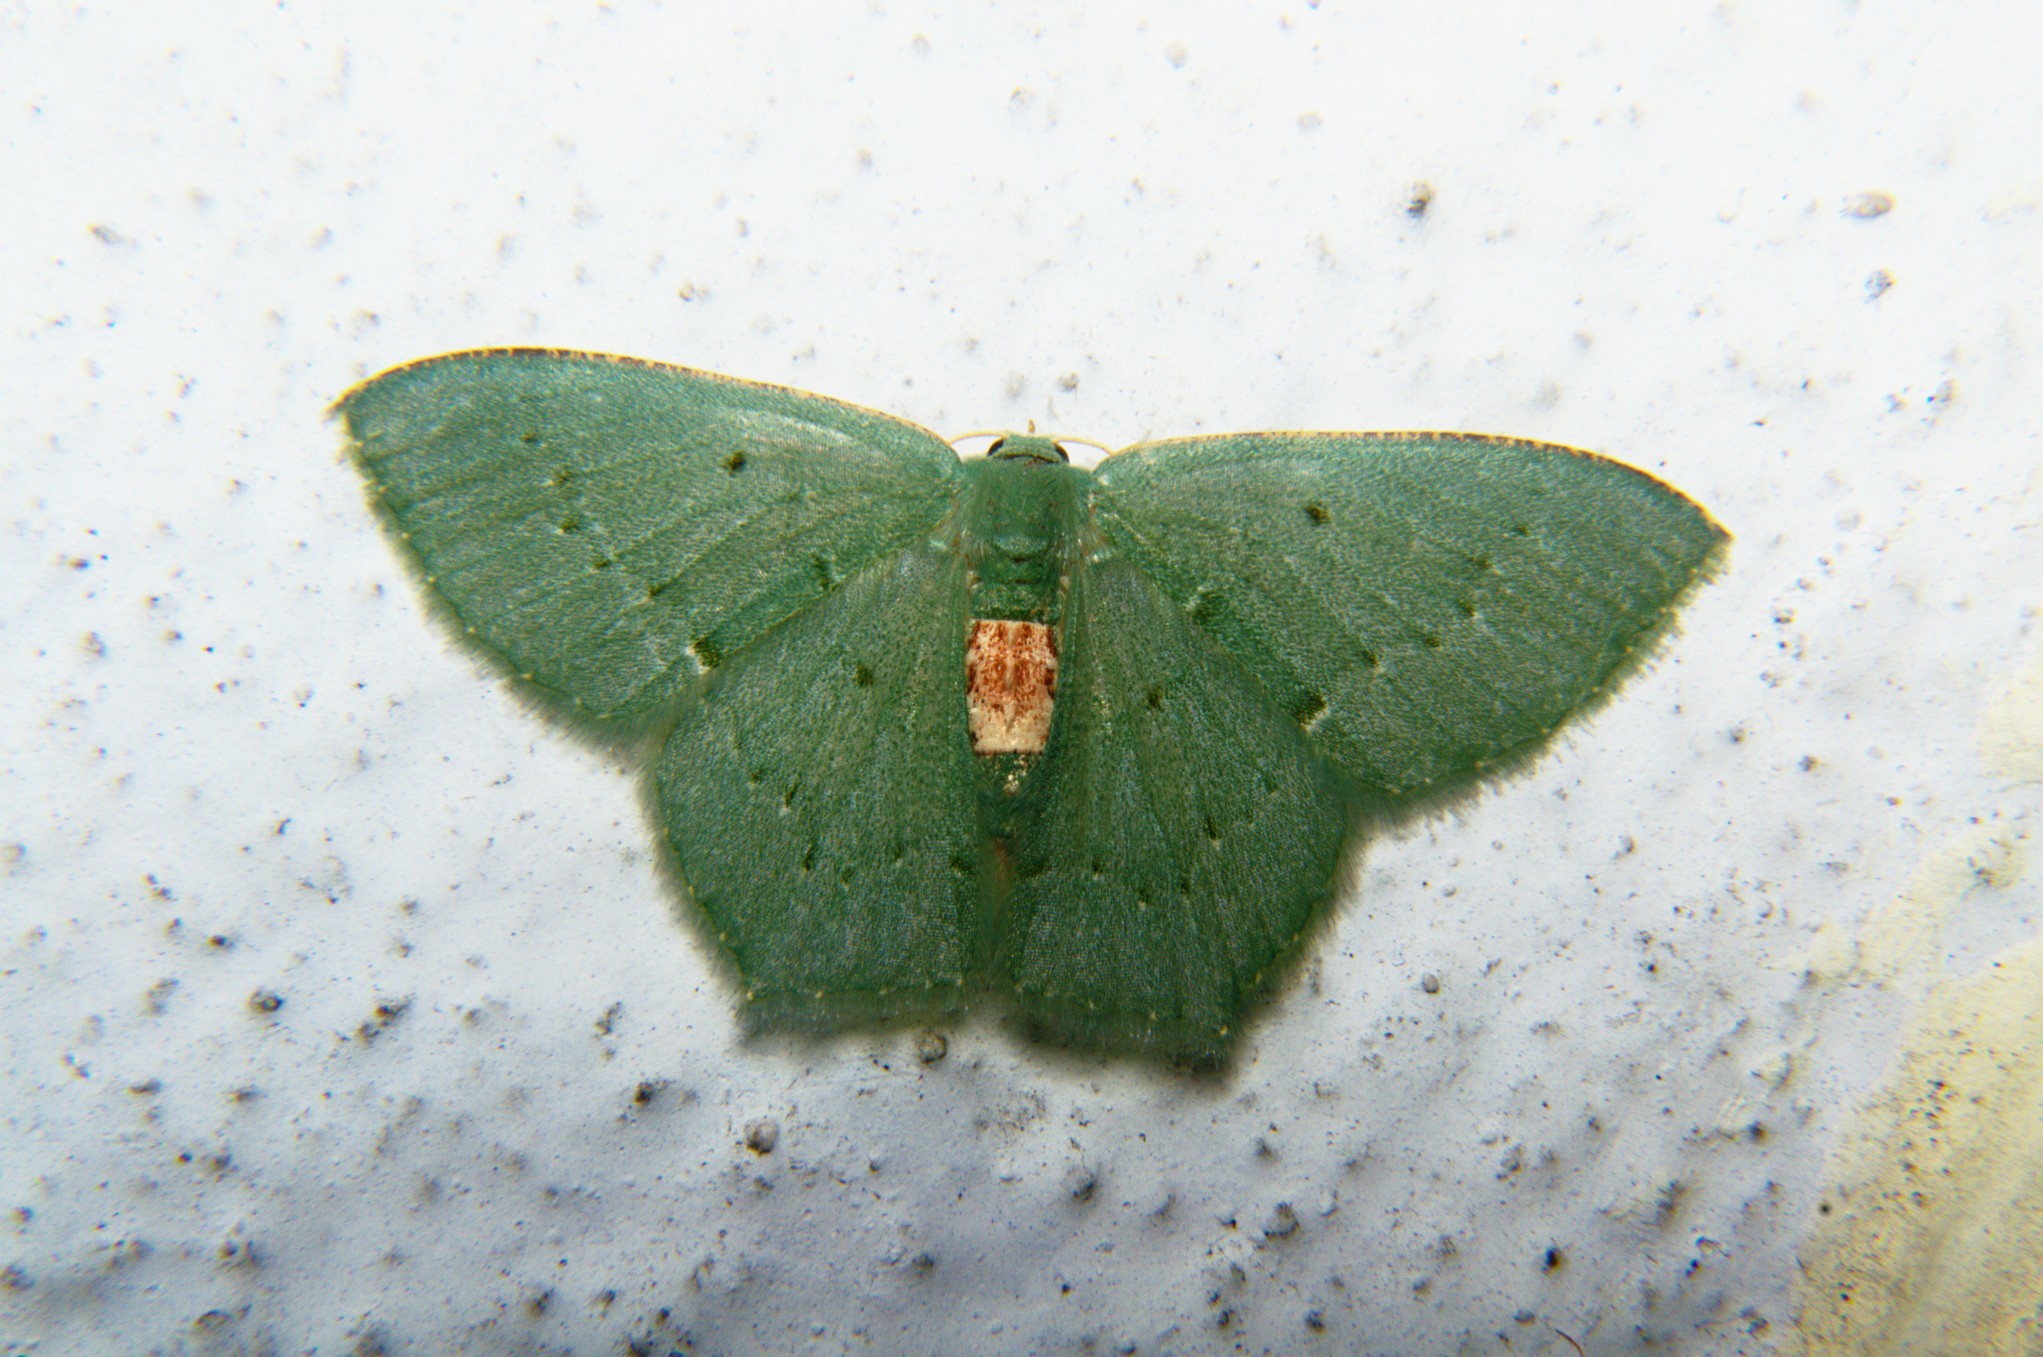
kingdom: Animalia
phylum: Arthropoda
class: Insecta
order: Lepidoptera
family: Geometridae
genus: Chlorissa
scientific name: Chlorissa
